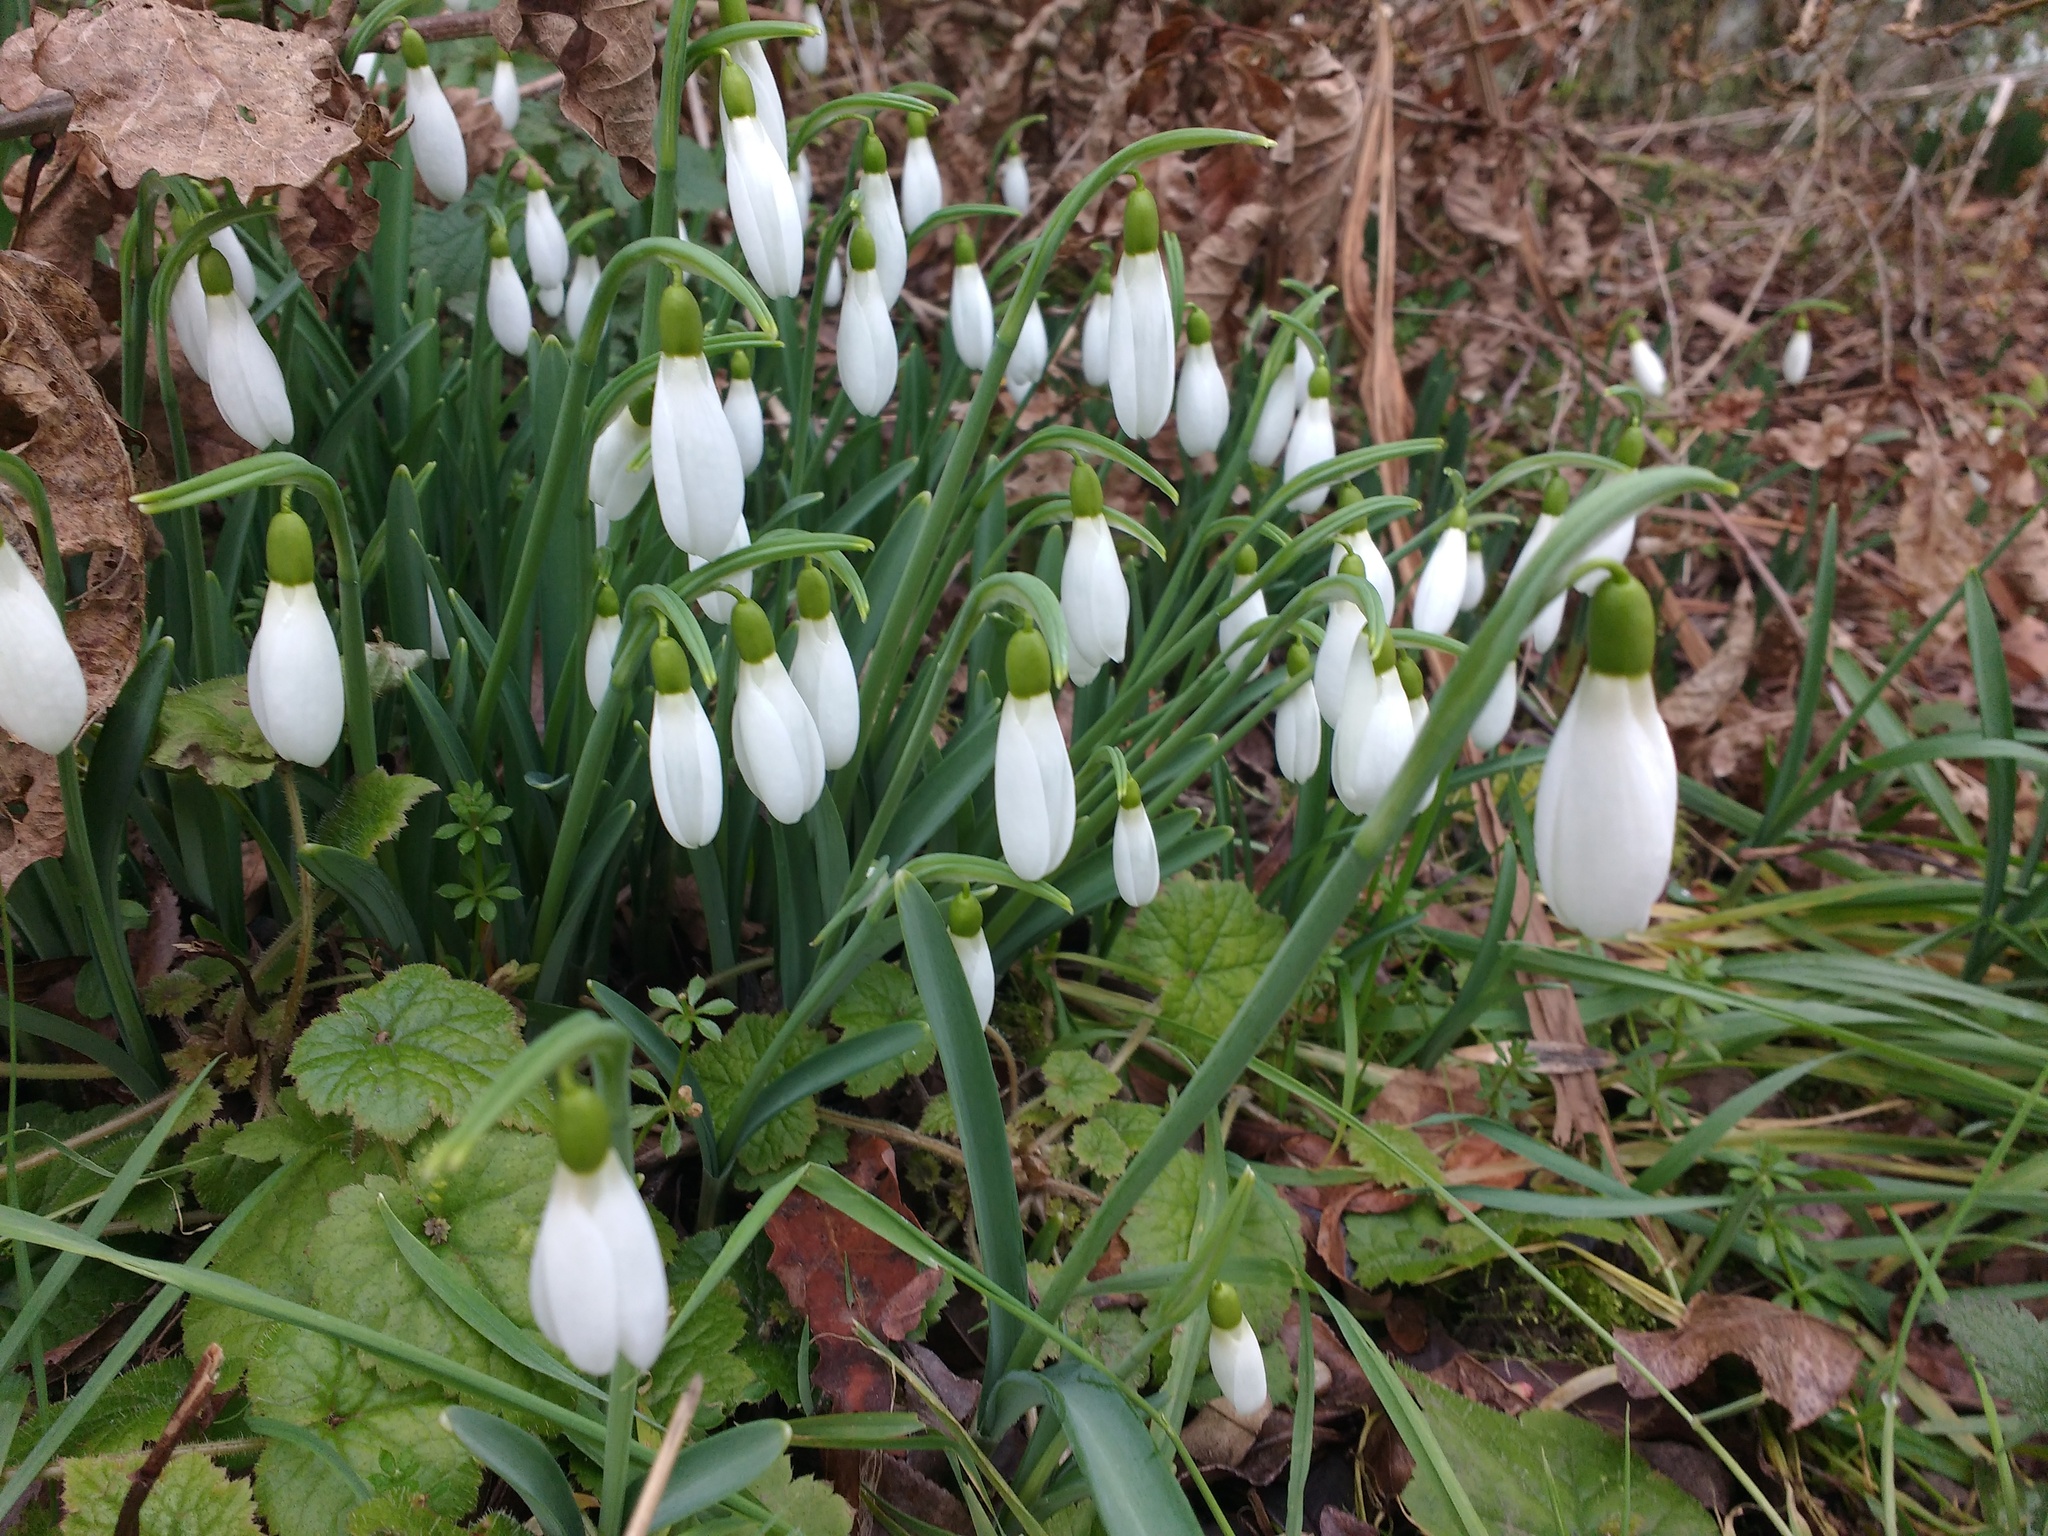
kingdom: Plantae
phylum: Tracheophyta
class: Liliopsida
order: Asparagales
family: Amaryllidaceae
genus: Galanthus
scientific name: Galanthus nivalis
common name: Snowdrop
